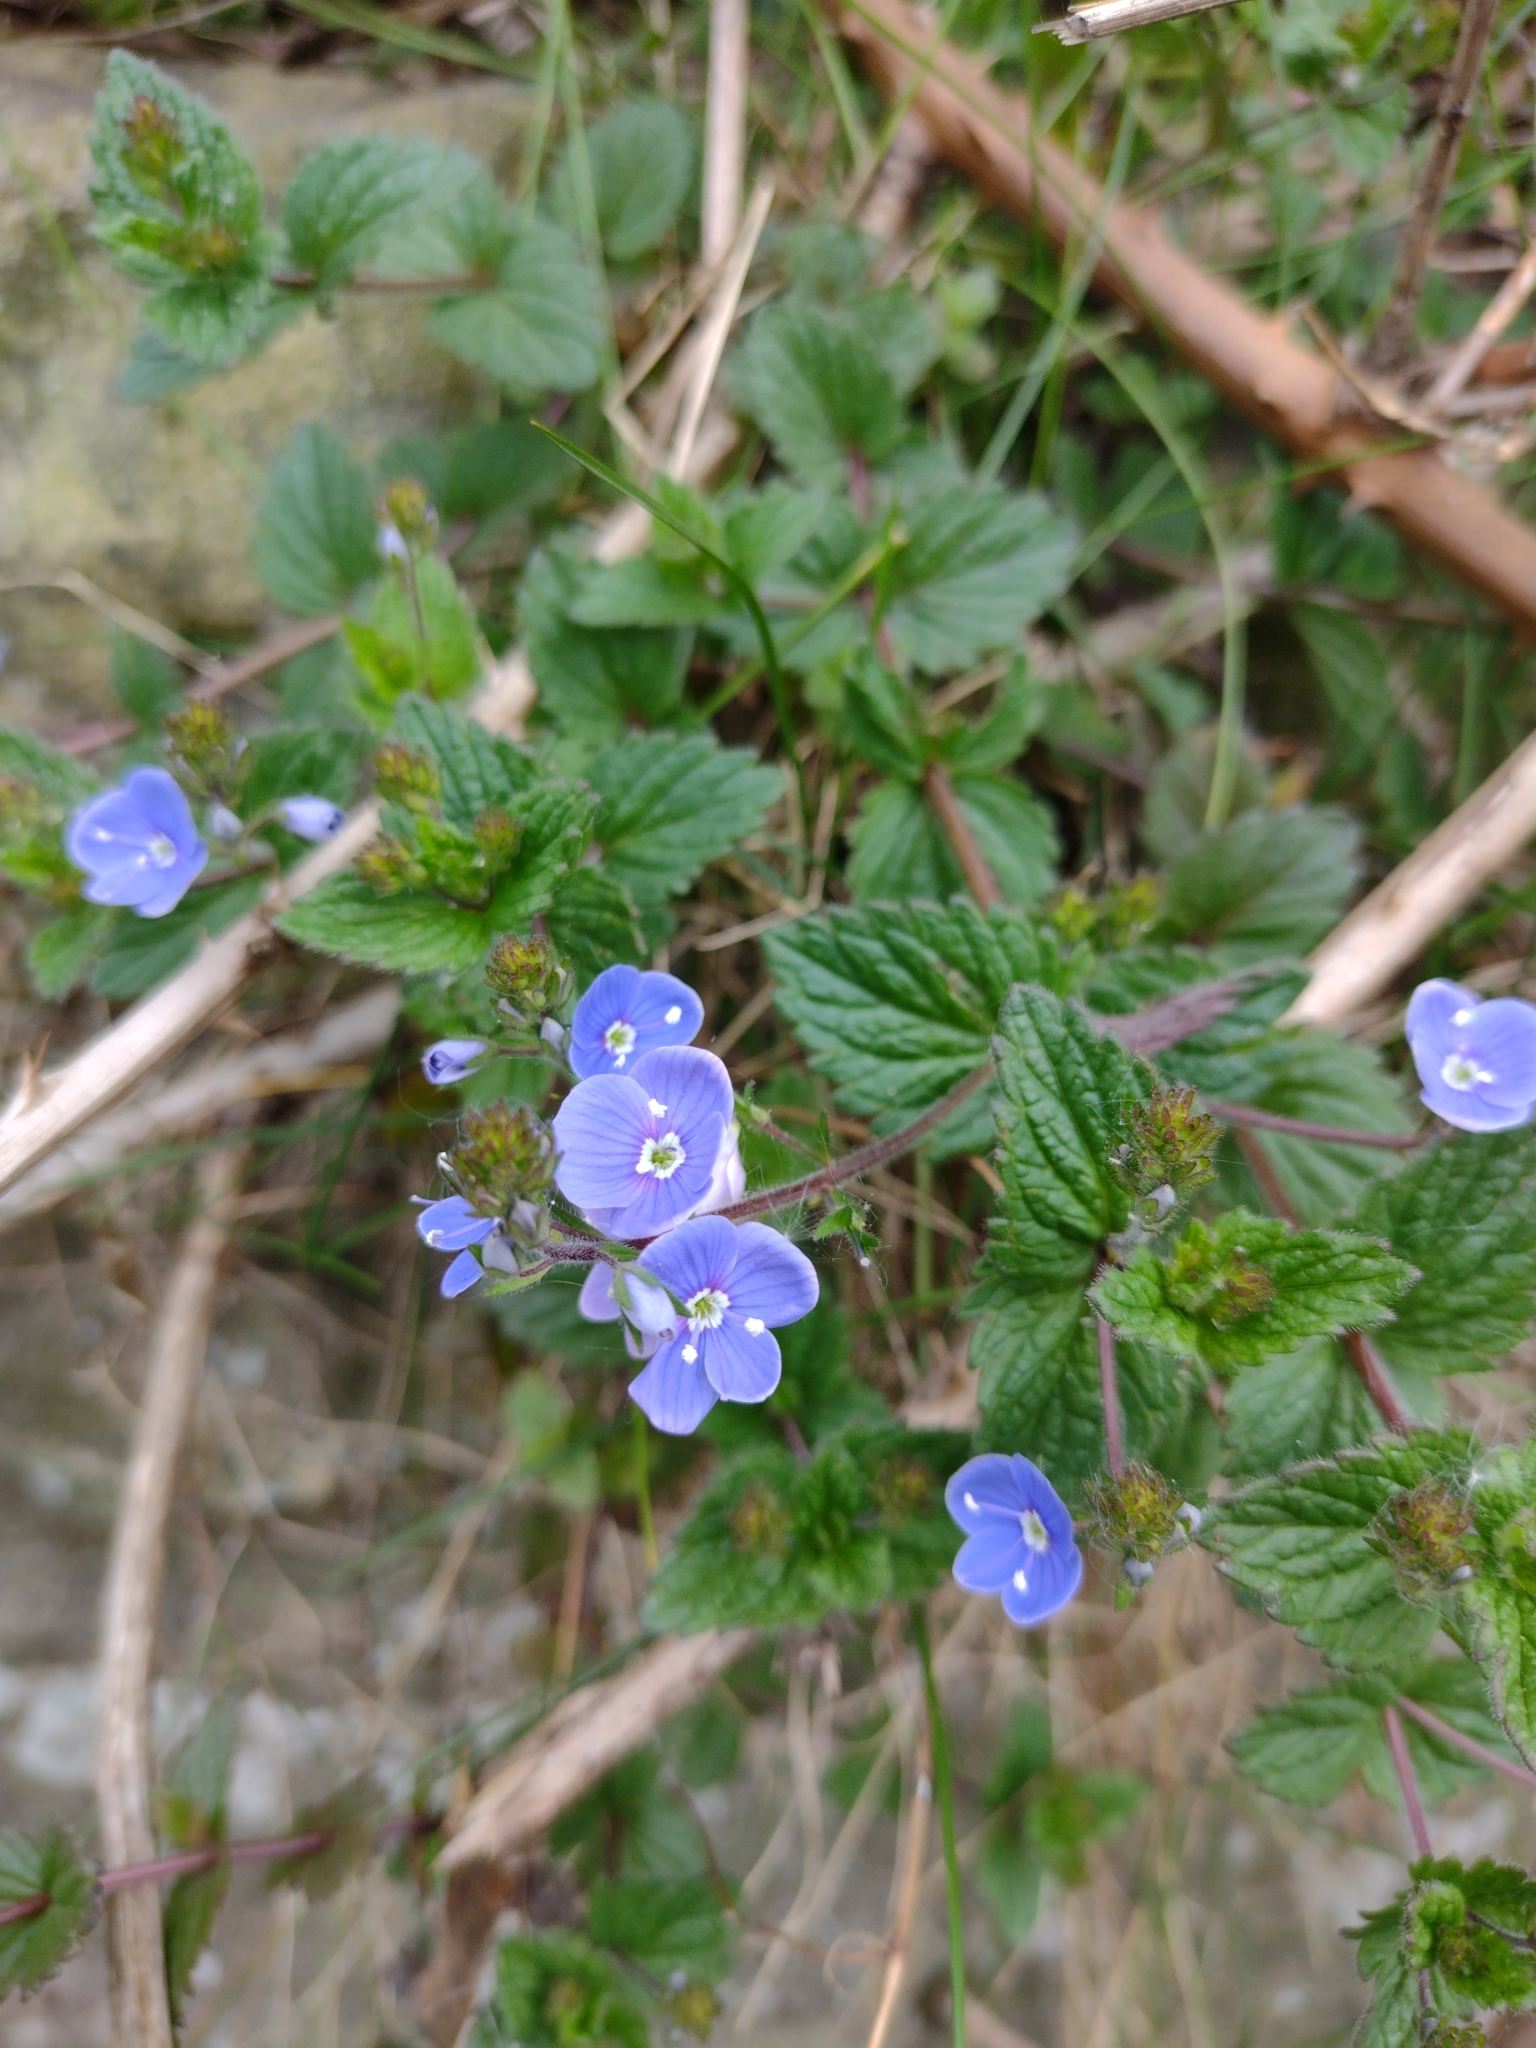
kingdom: Plantae
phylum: Tracheophyta
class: Magnoliopsida
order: Lamiales
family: Plantaginaceae
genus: Veronica
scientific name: Veronica chamaedrys
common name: Germander speedwell
